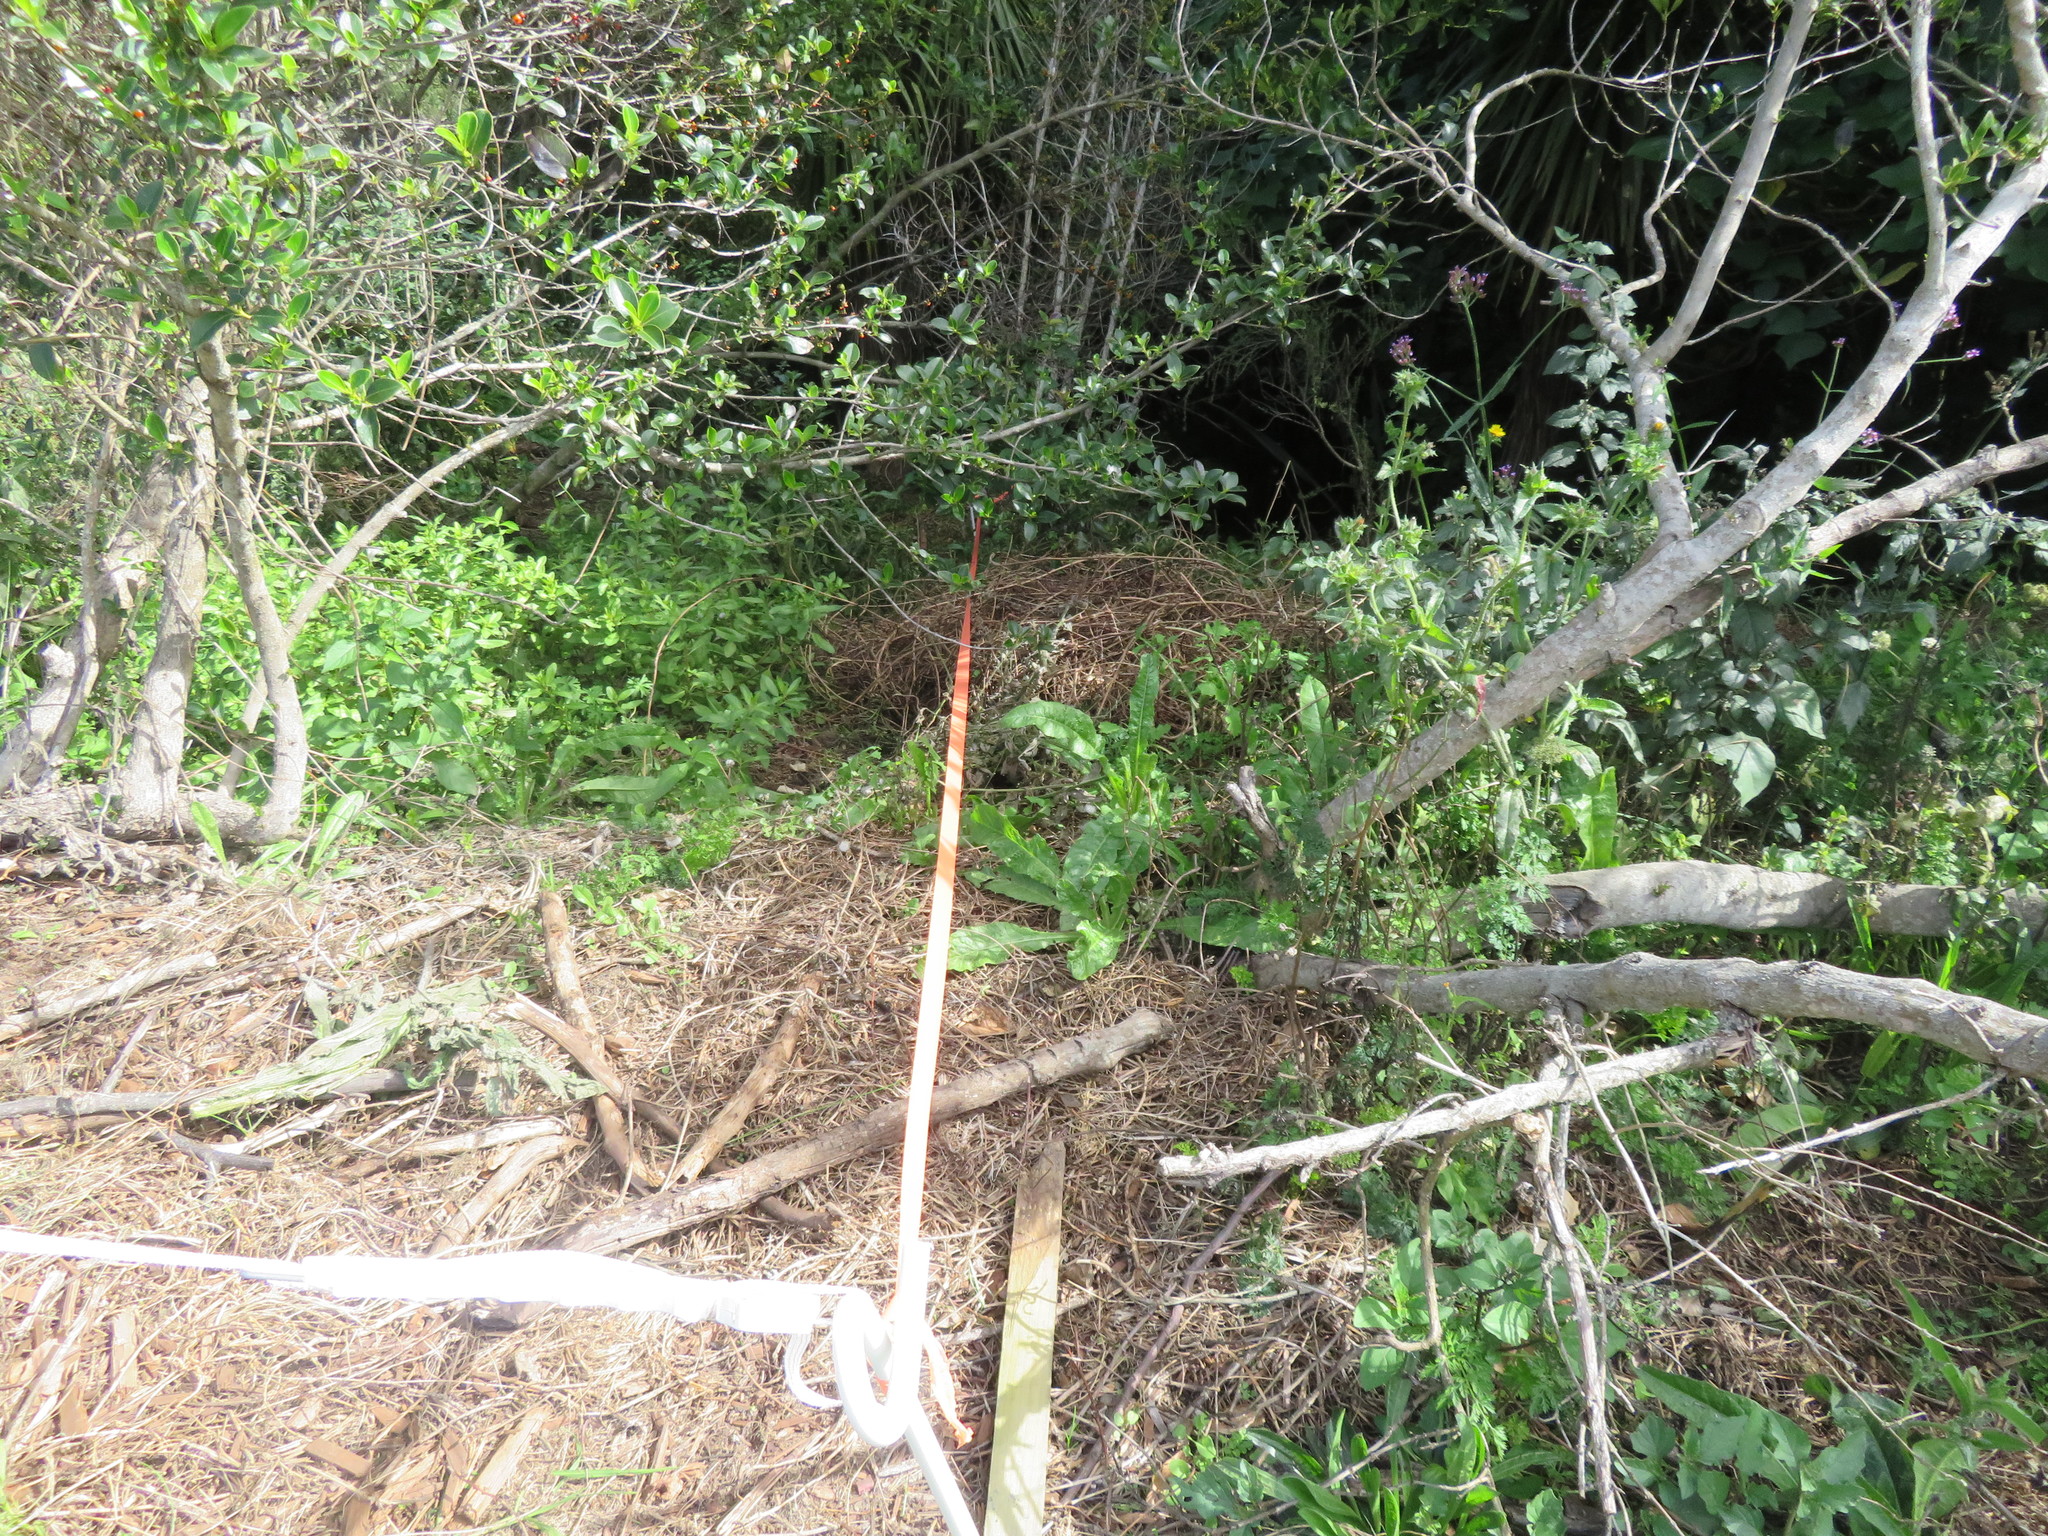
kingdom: Plantae
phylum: Tracheophyta
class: Liliopsida
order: Poales
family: Poaceae
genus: Cenchrus
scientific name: Cenchrus clandestinus
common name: Kikuyugrass
